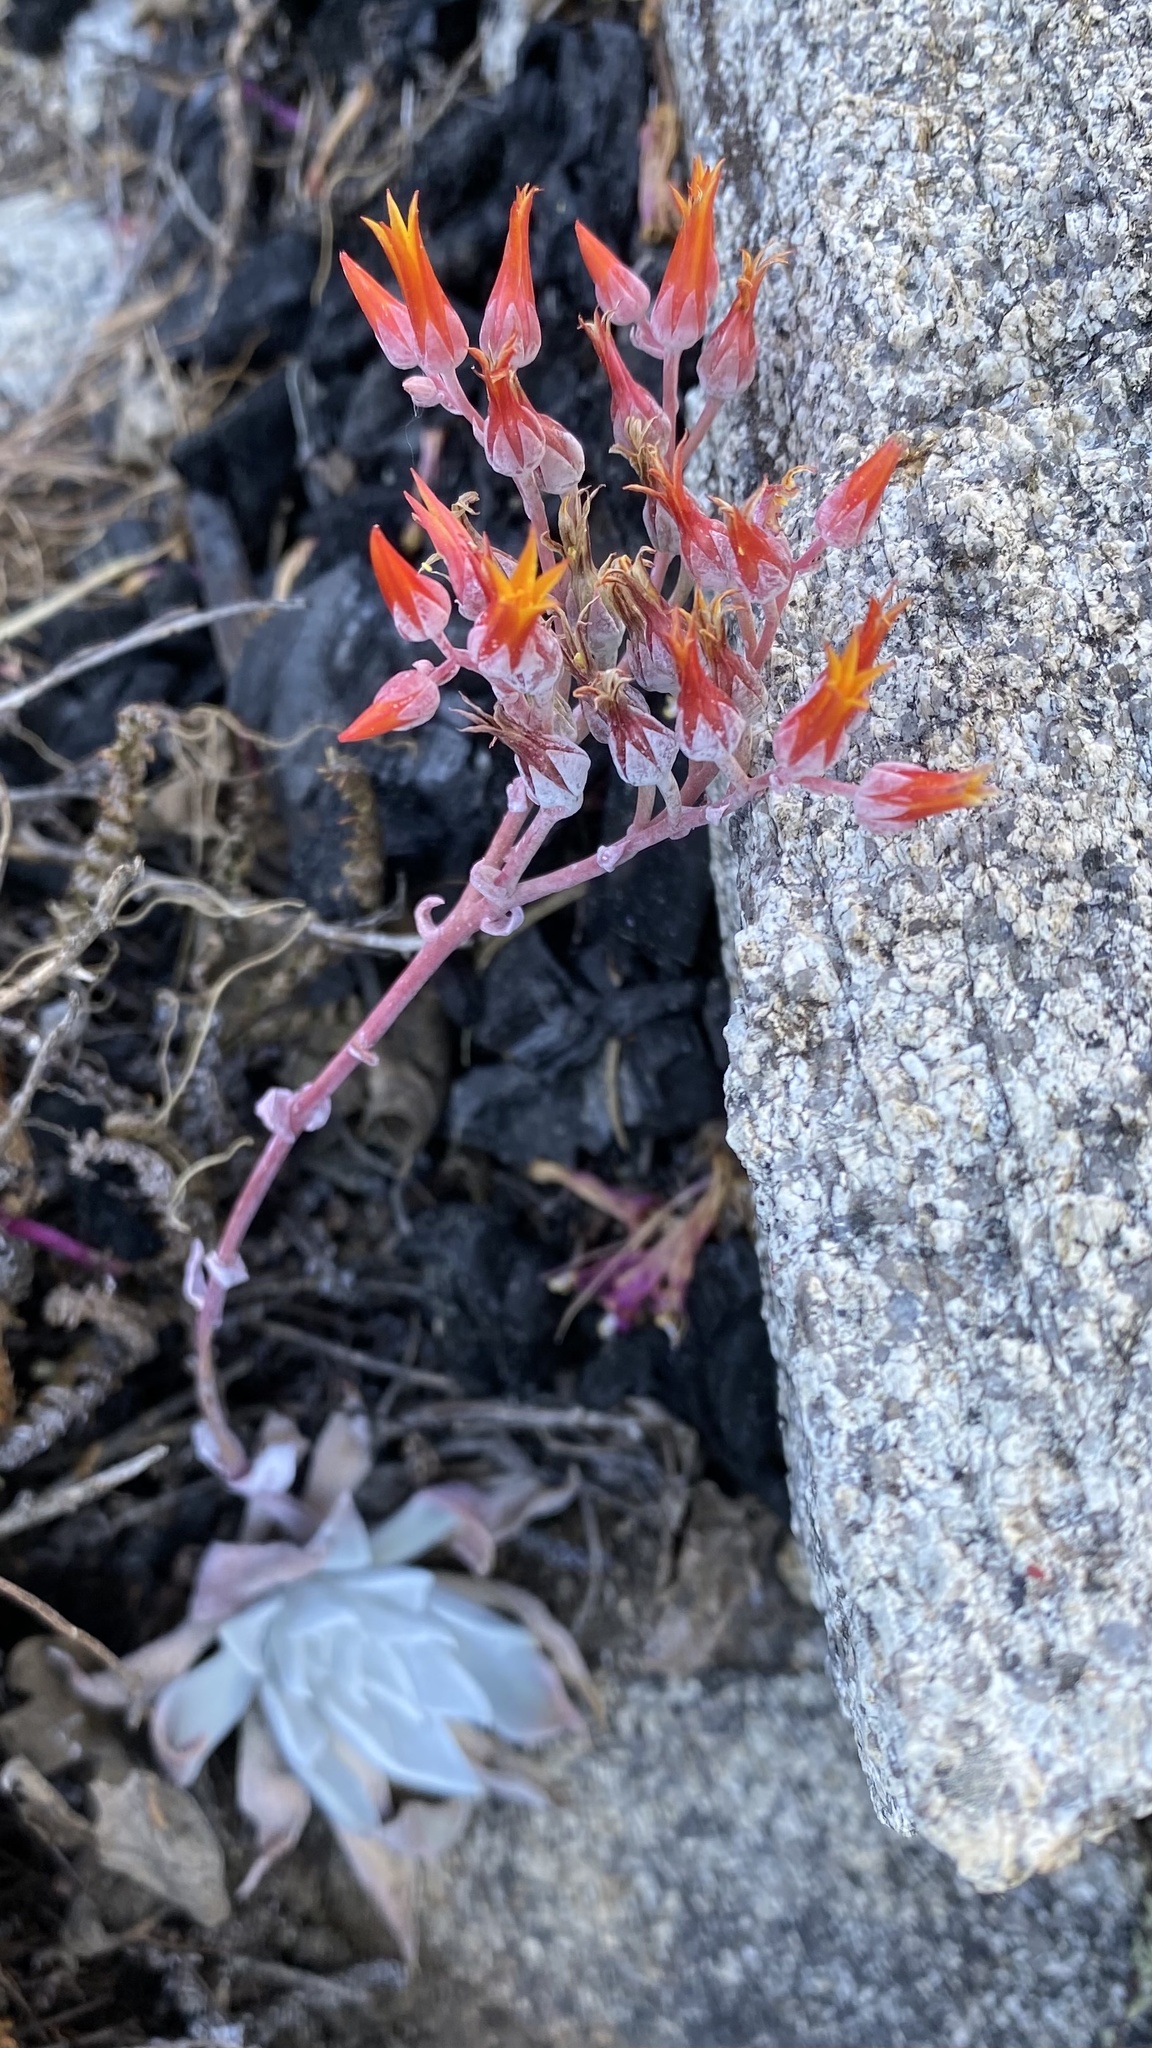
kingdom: Plantae
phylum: Tracheophyta
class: Magnoliopsida
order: Saxifragales
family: Crassulaceae
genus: Dudleya
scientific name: Dudleya cymosa
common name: Canyon dudleya
